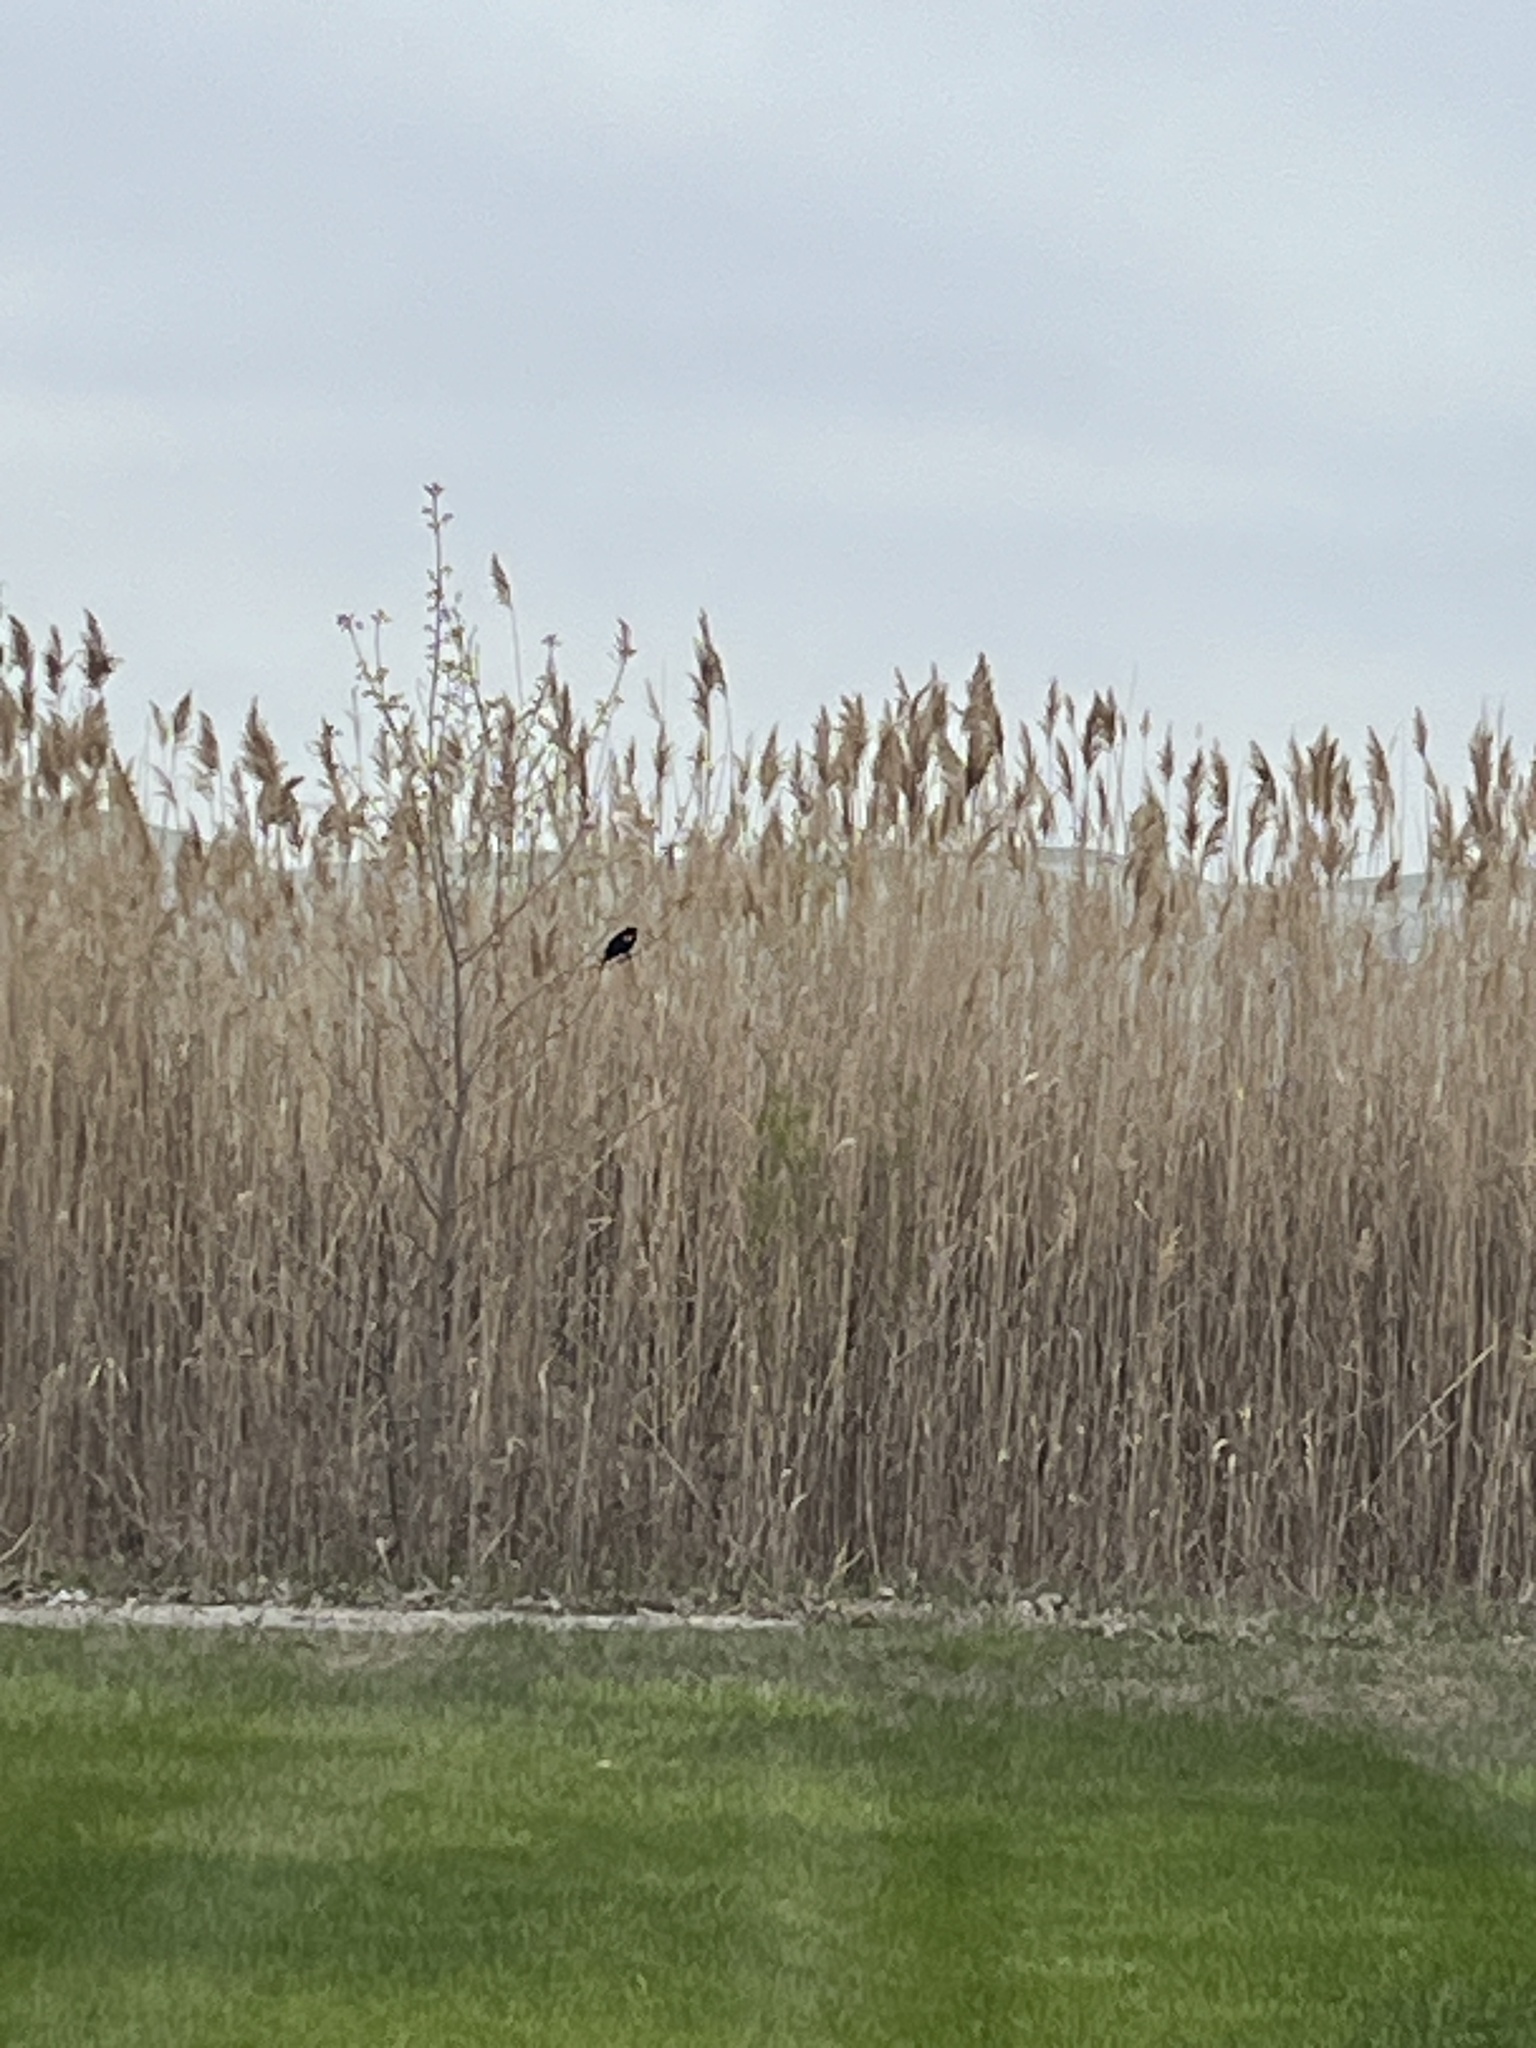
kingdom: Animalia
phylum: Chordata
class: Aves
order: Passeriformes
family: Icteridae
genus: Agelaius
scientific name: Agelaius phoeniceus
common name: Red-winged blackbird
